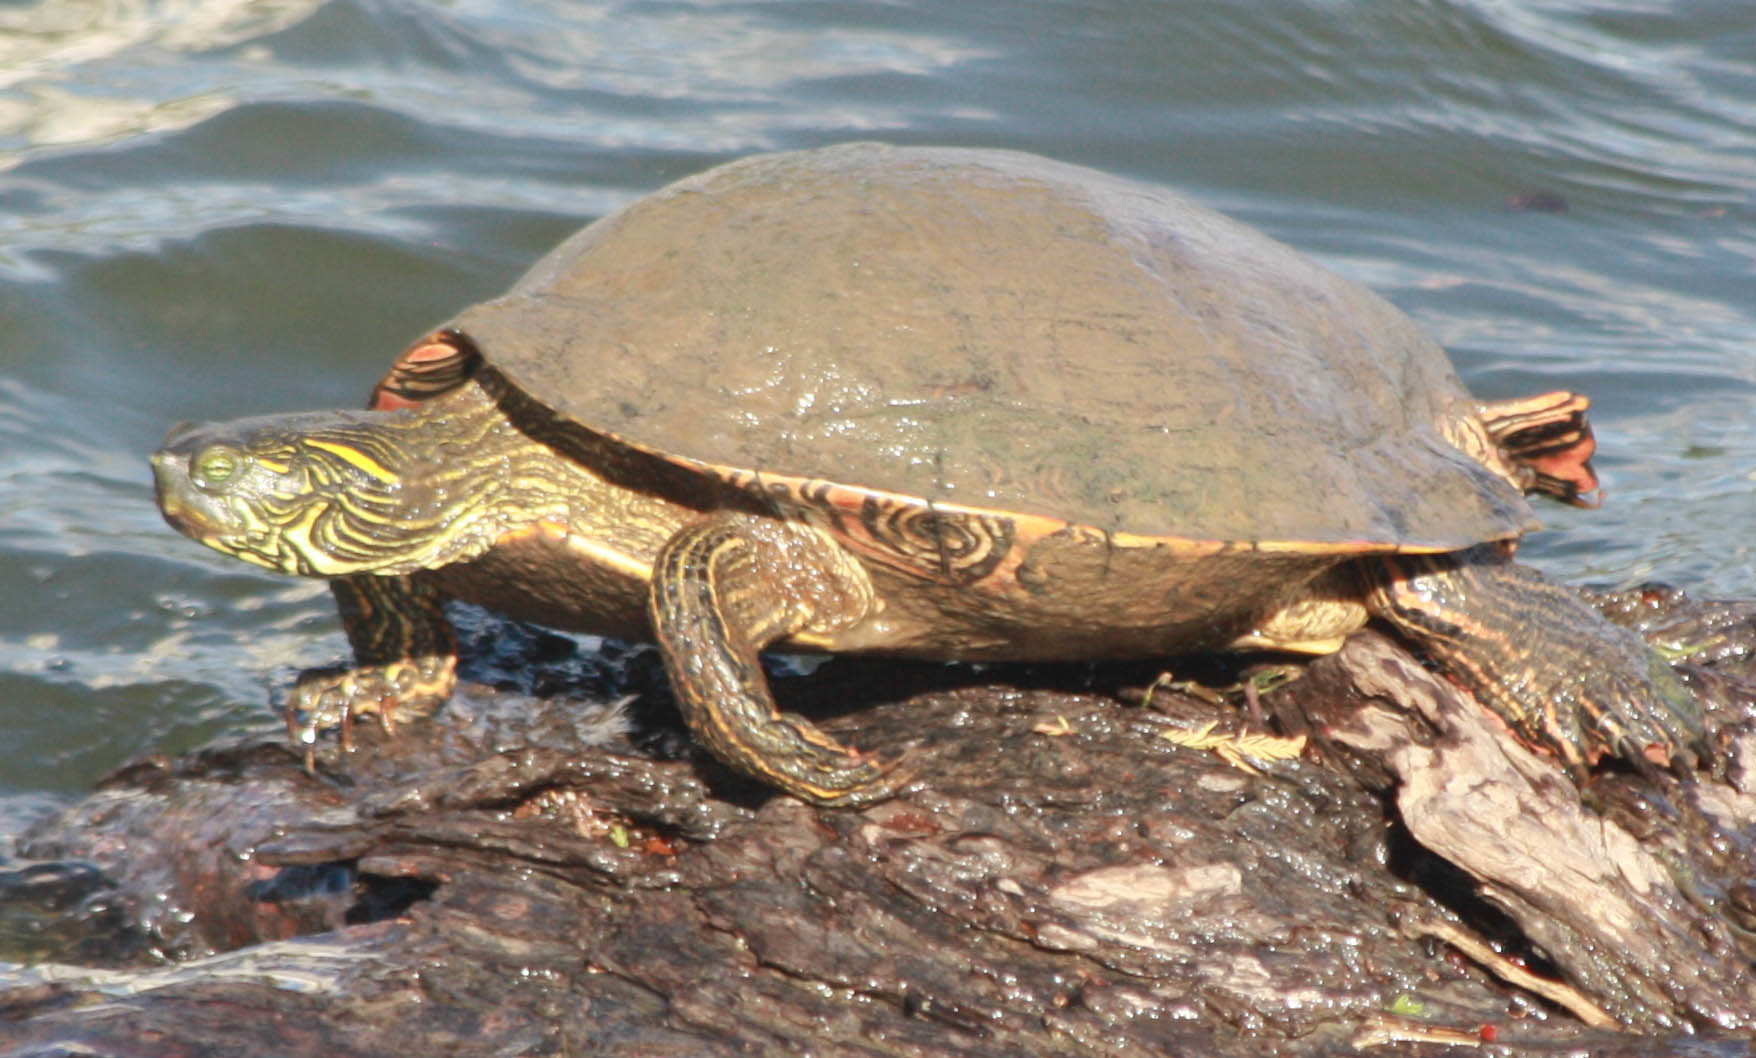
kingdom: Animalia
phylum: Chordata
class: Testudines
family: Emydidae
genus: Pseudemys
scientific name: Pseudemys texana
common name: Texas river cooter
